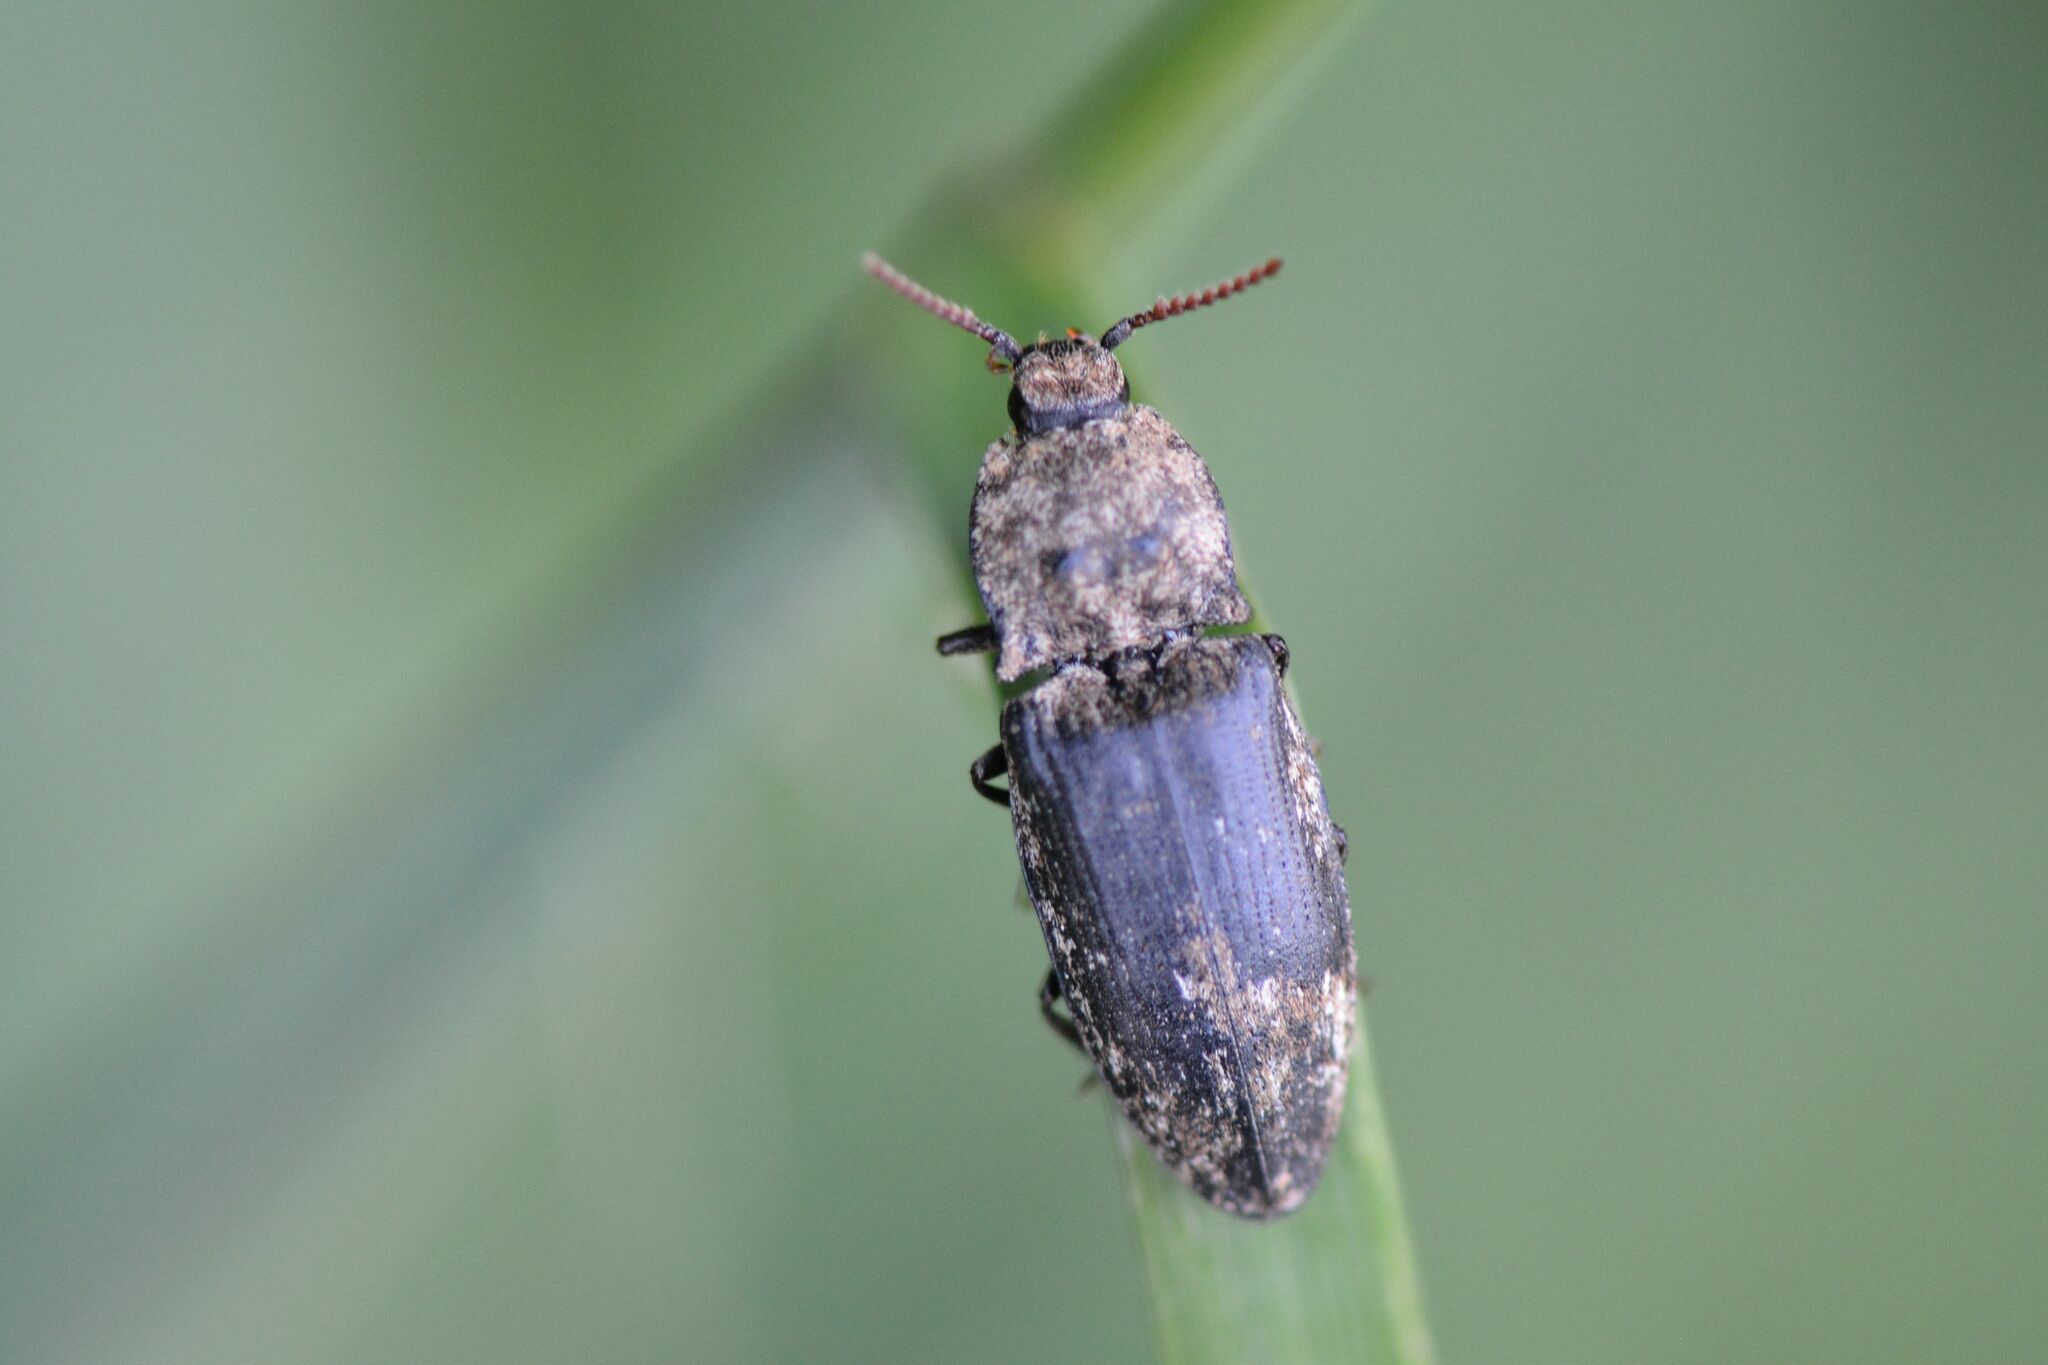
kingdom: Animalia
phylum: Arthropoda
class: Insecta
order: Coleoptera
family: Elateridae
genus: Agrypnus
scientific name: Agrypnus murinus
